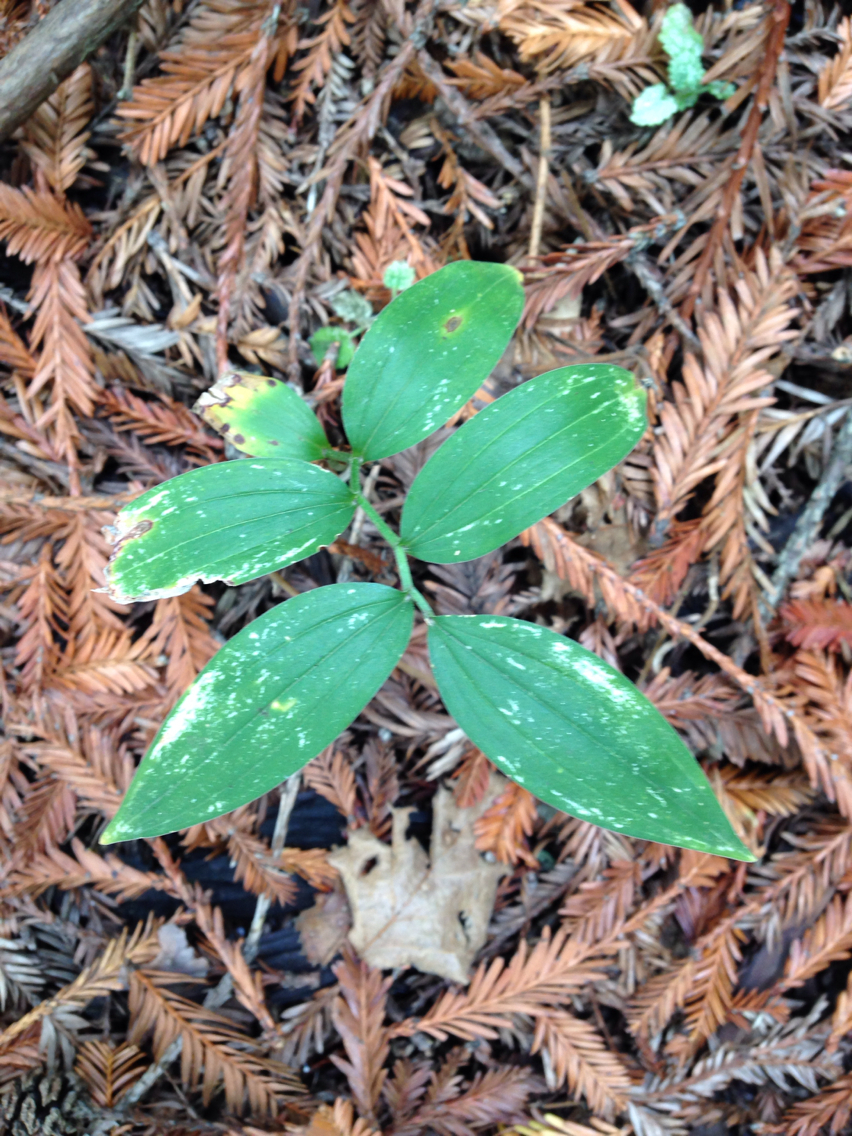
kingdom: Plantae
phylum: Tracheophyta
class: Liliopsida
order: Asparagales
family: Asparagaceae
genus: Maianthemum
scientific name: Maianthemum stellatum
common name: Little false solomon's seal
